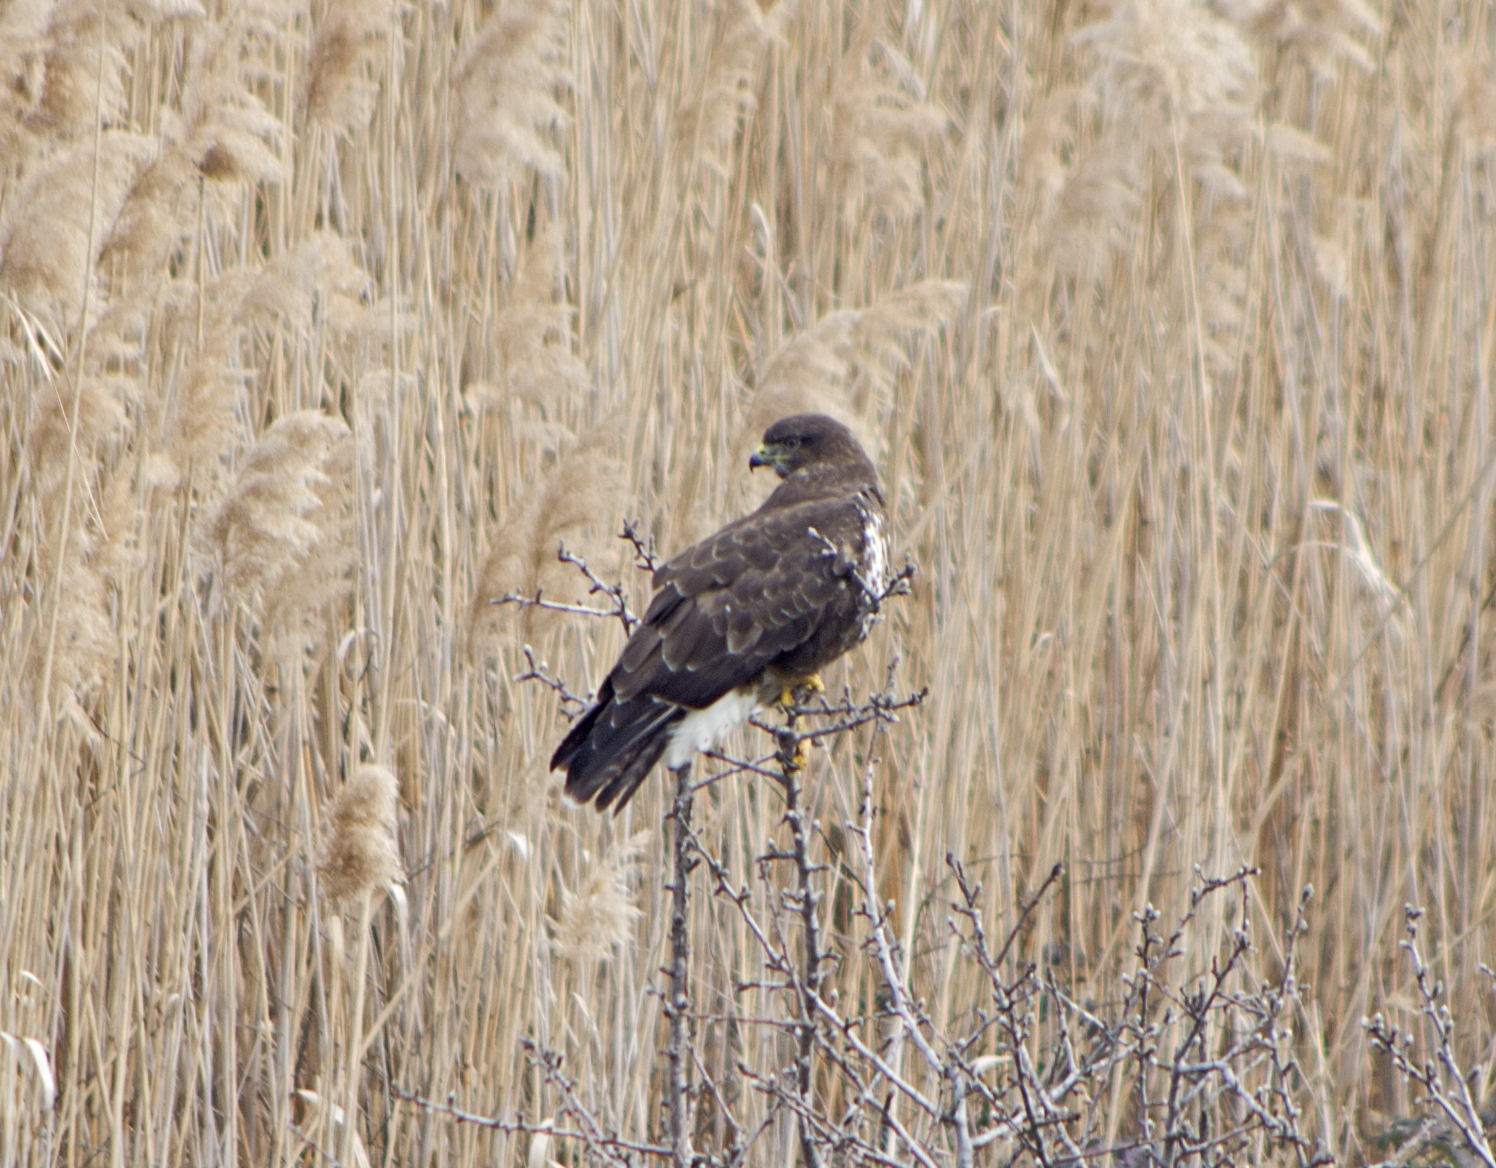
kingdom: Animalia
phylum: Chordata
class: Aves
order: Accipitriformes
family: Accipitridae
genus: Buteo
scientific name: Buteo buteo
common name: Common buzzard
